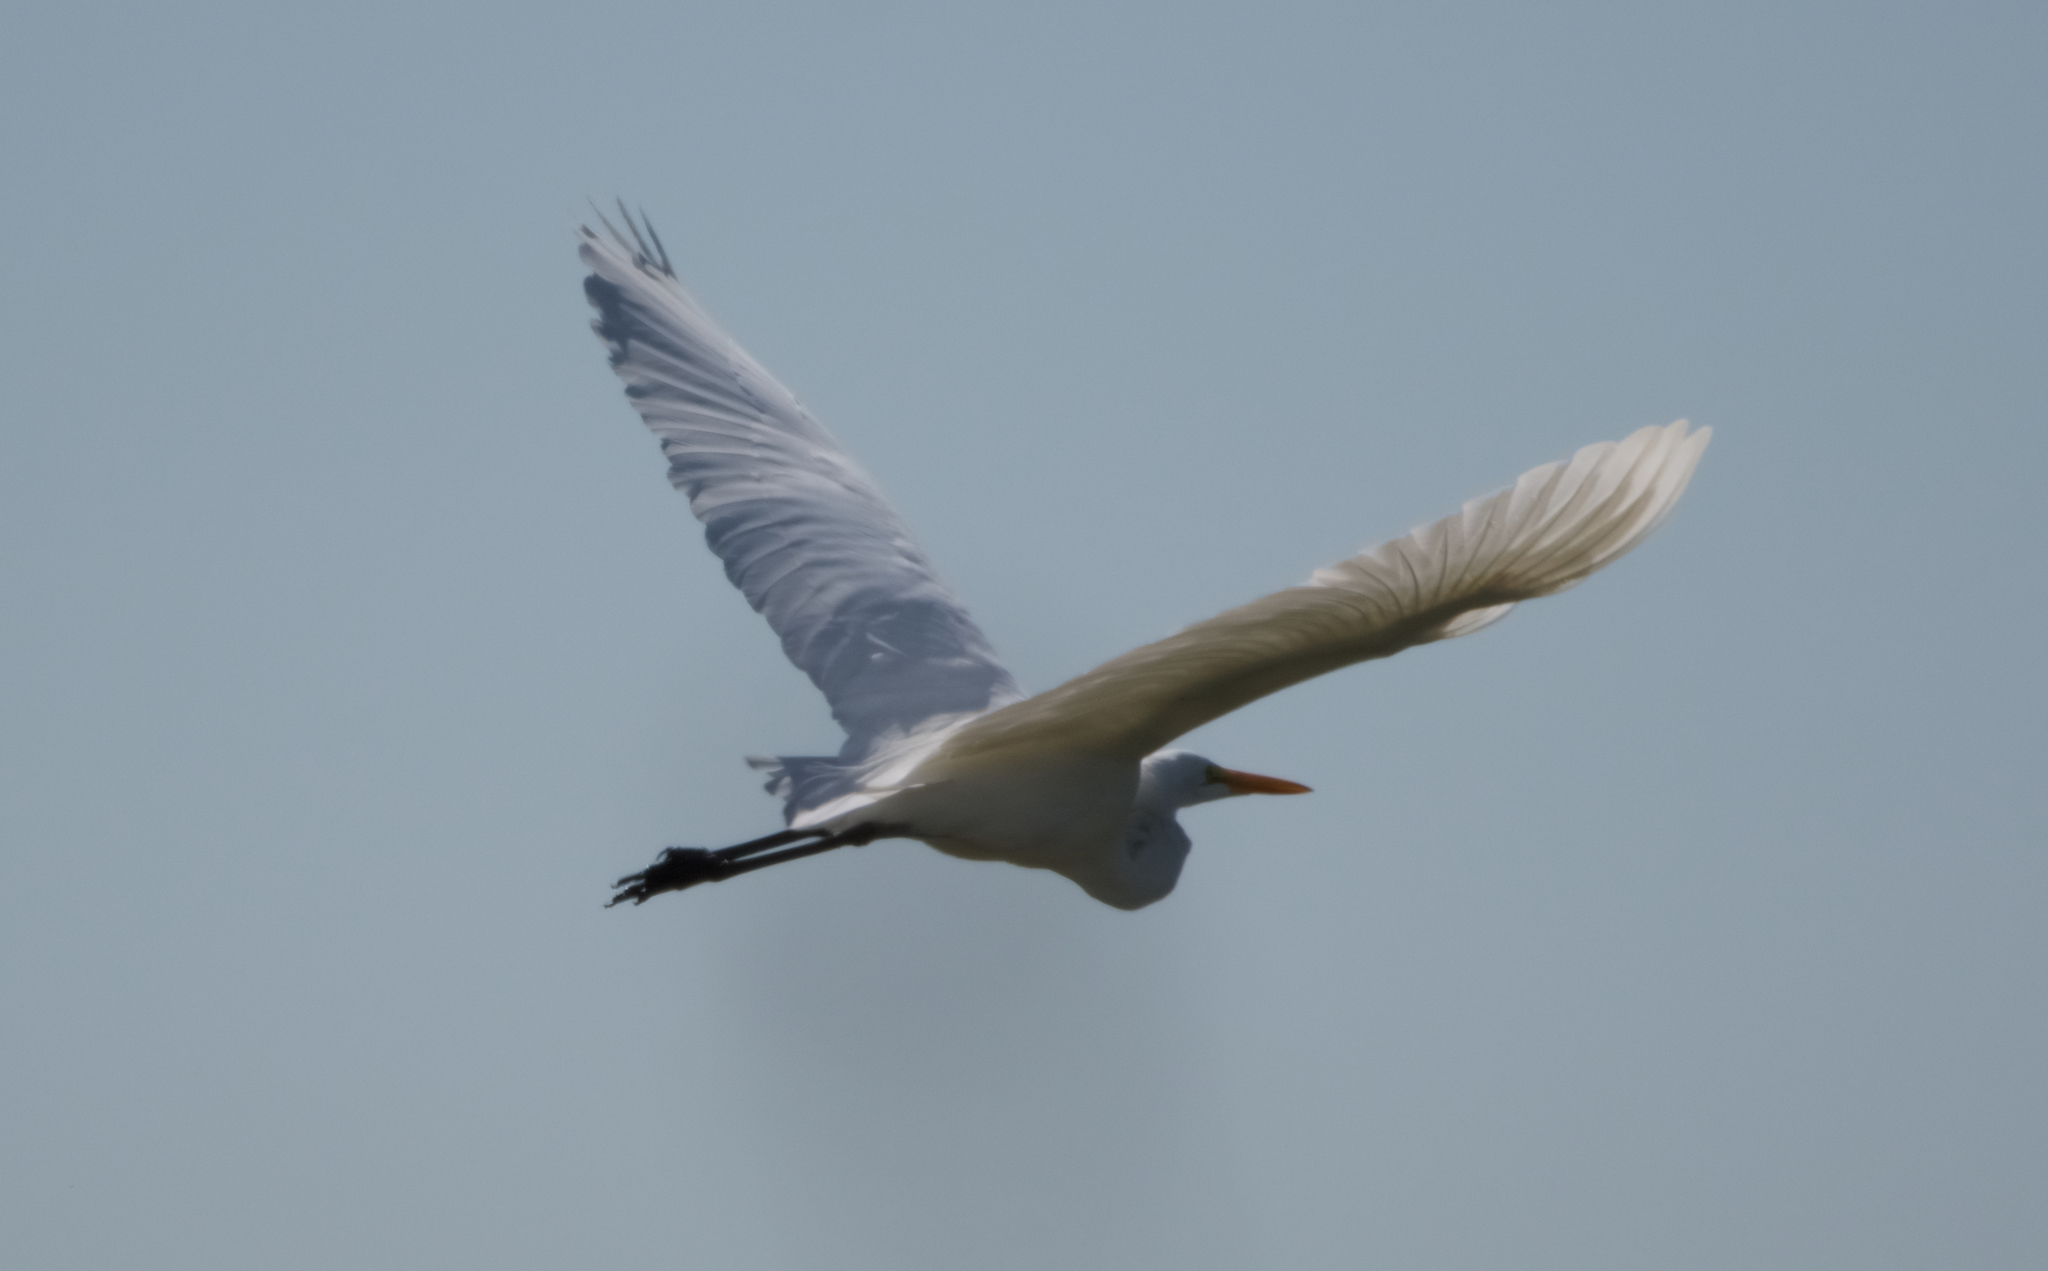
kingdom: Animalia
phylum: Chordata
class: Aves
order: Pelecaniformes
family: Ardeidae
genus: Ardea
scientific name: Ardea alba
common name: Great egret
